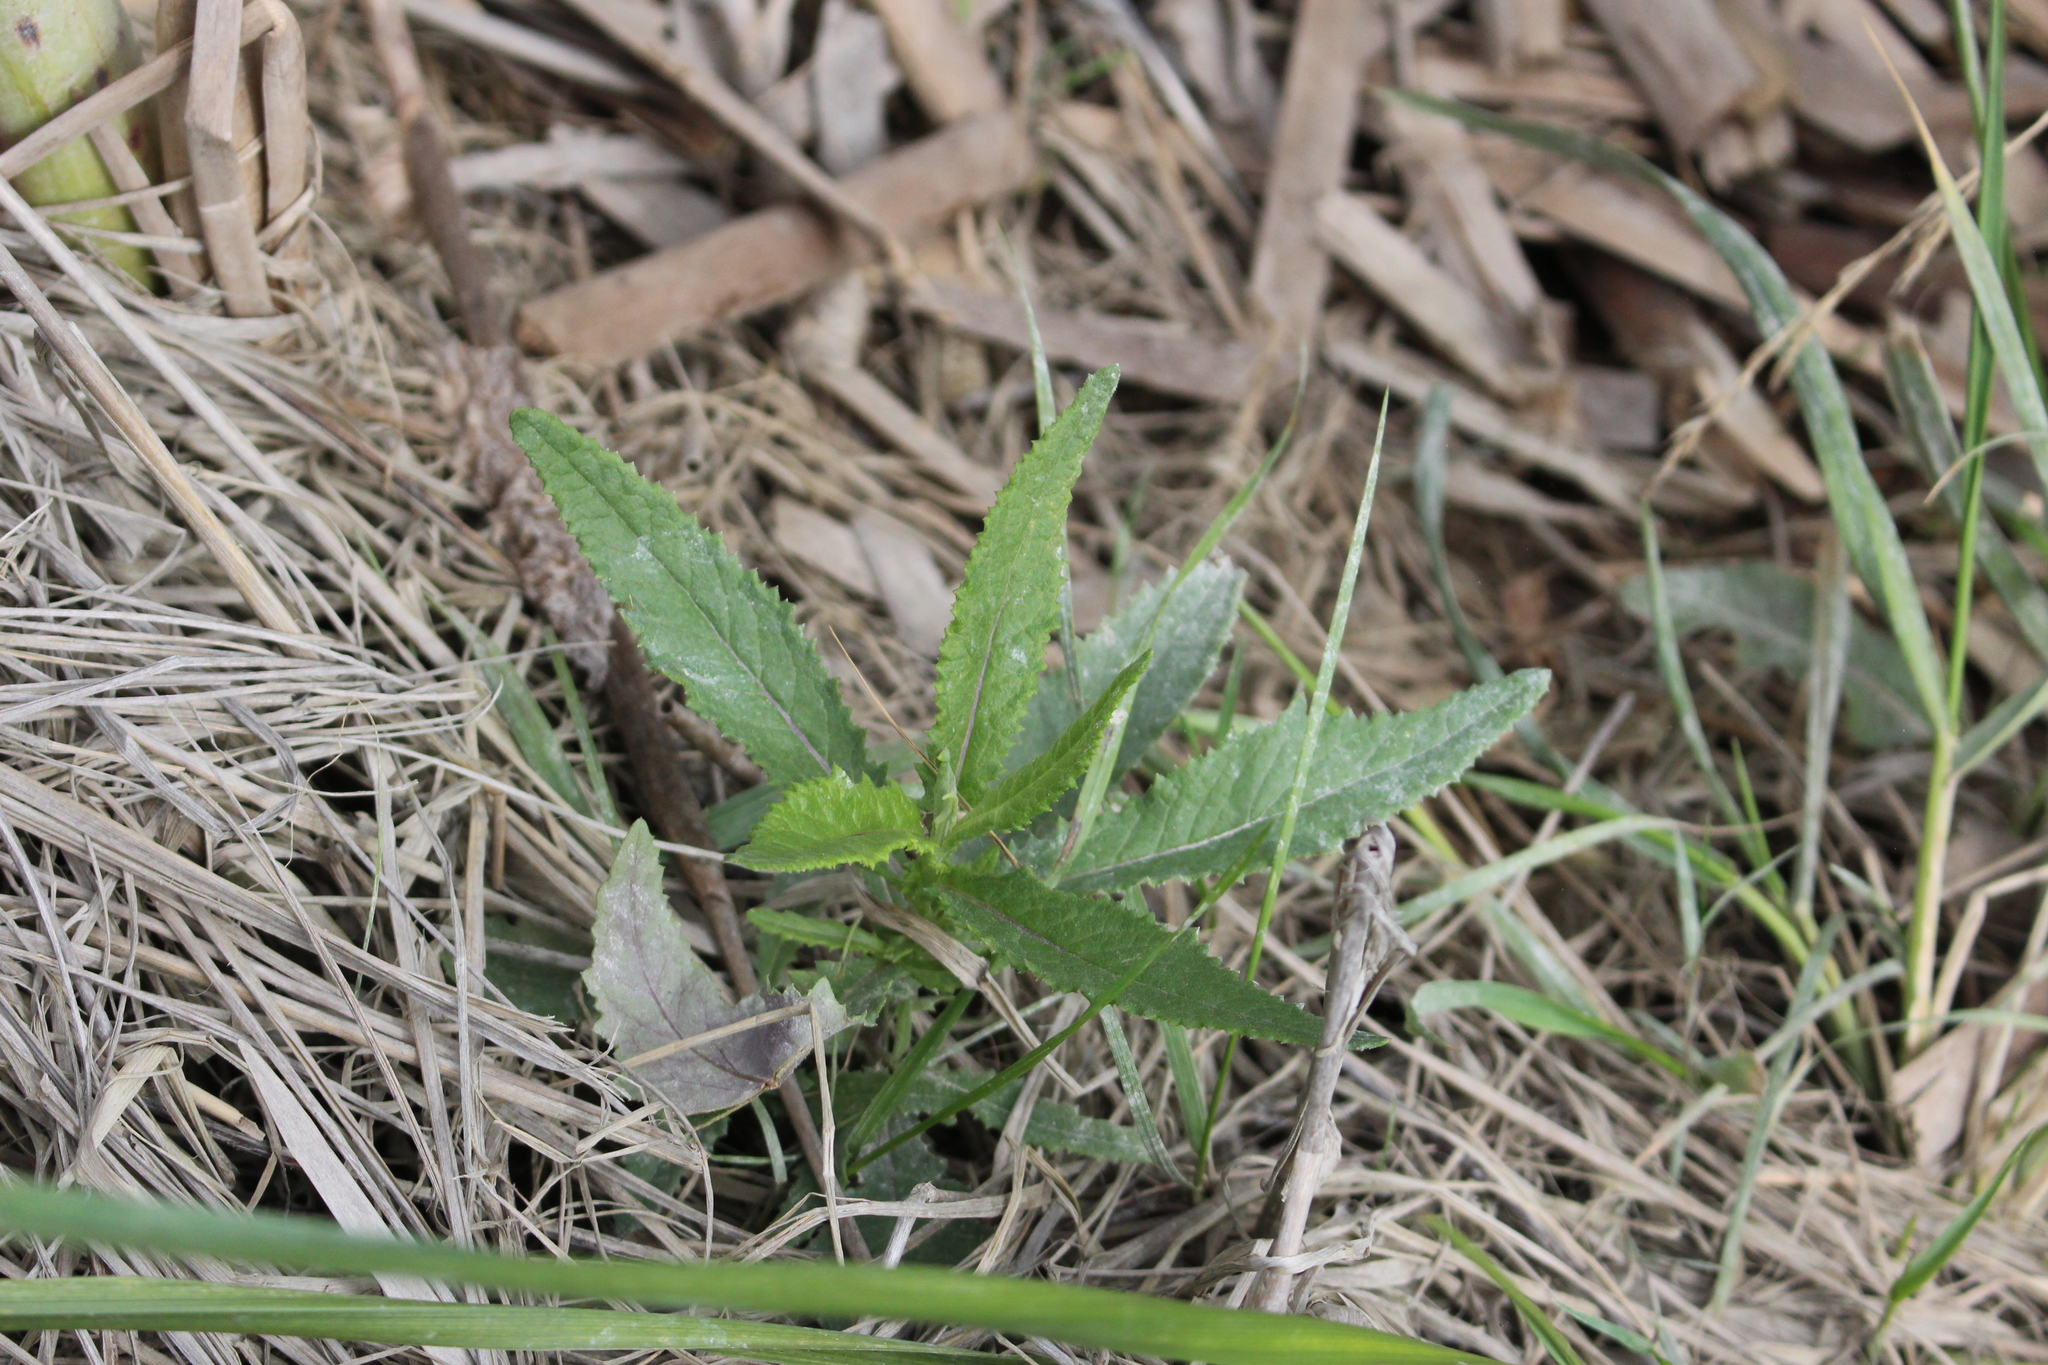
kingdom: Plantae
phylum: Tracheophyta
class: Magnoliopsida
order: Asterales
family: Asteraceae
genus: Senecio
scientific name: Senecio minimus
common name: Toothed fireweed
